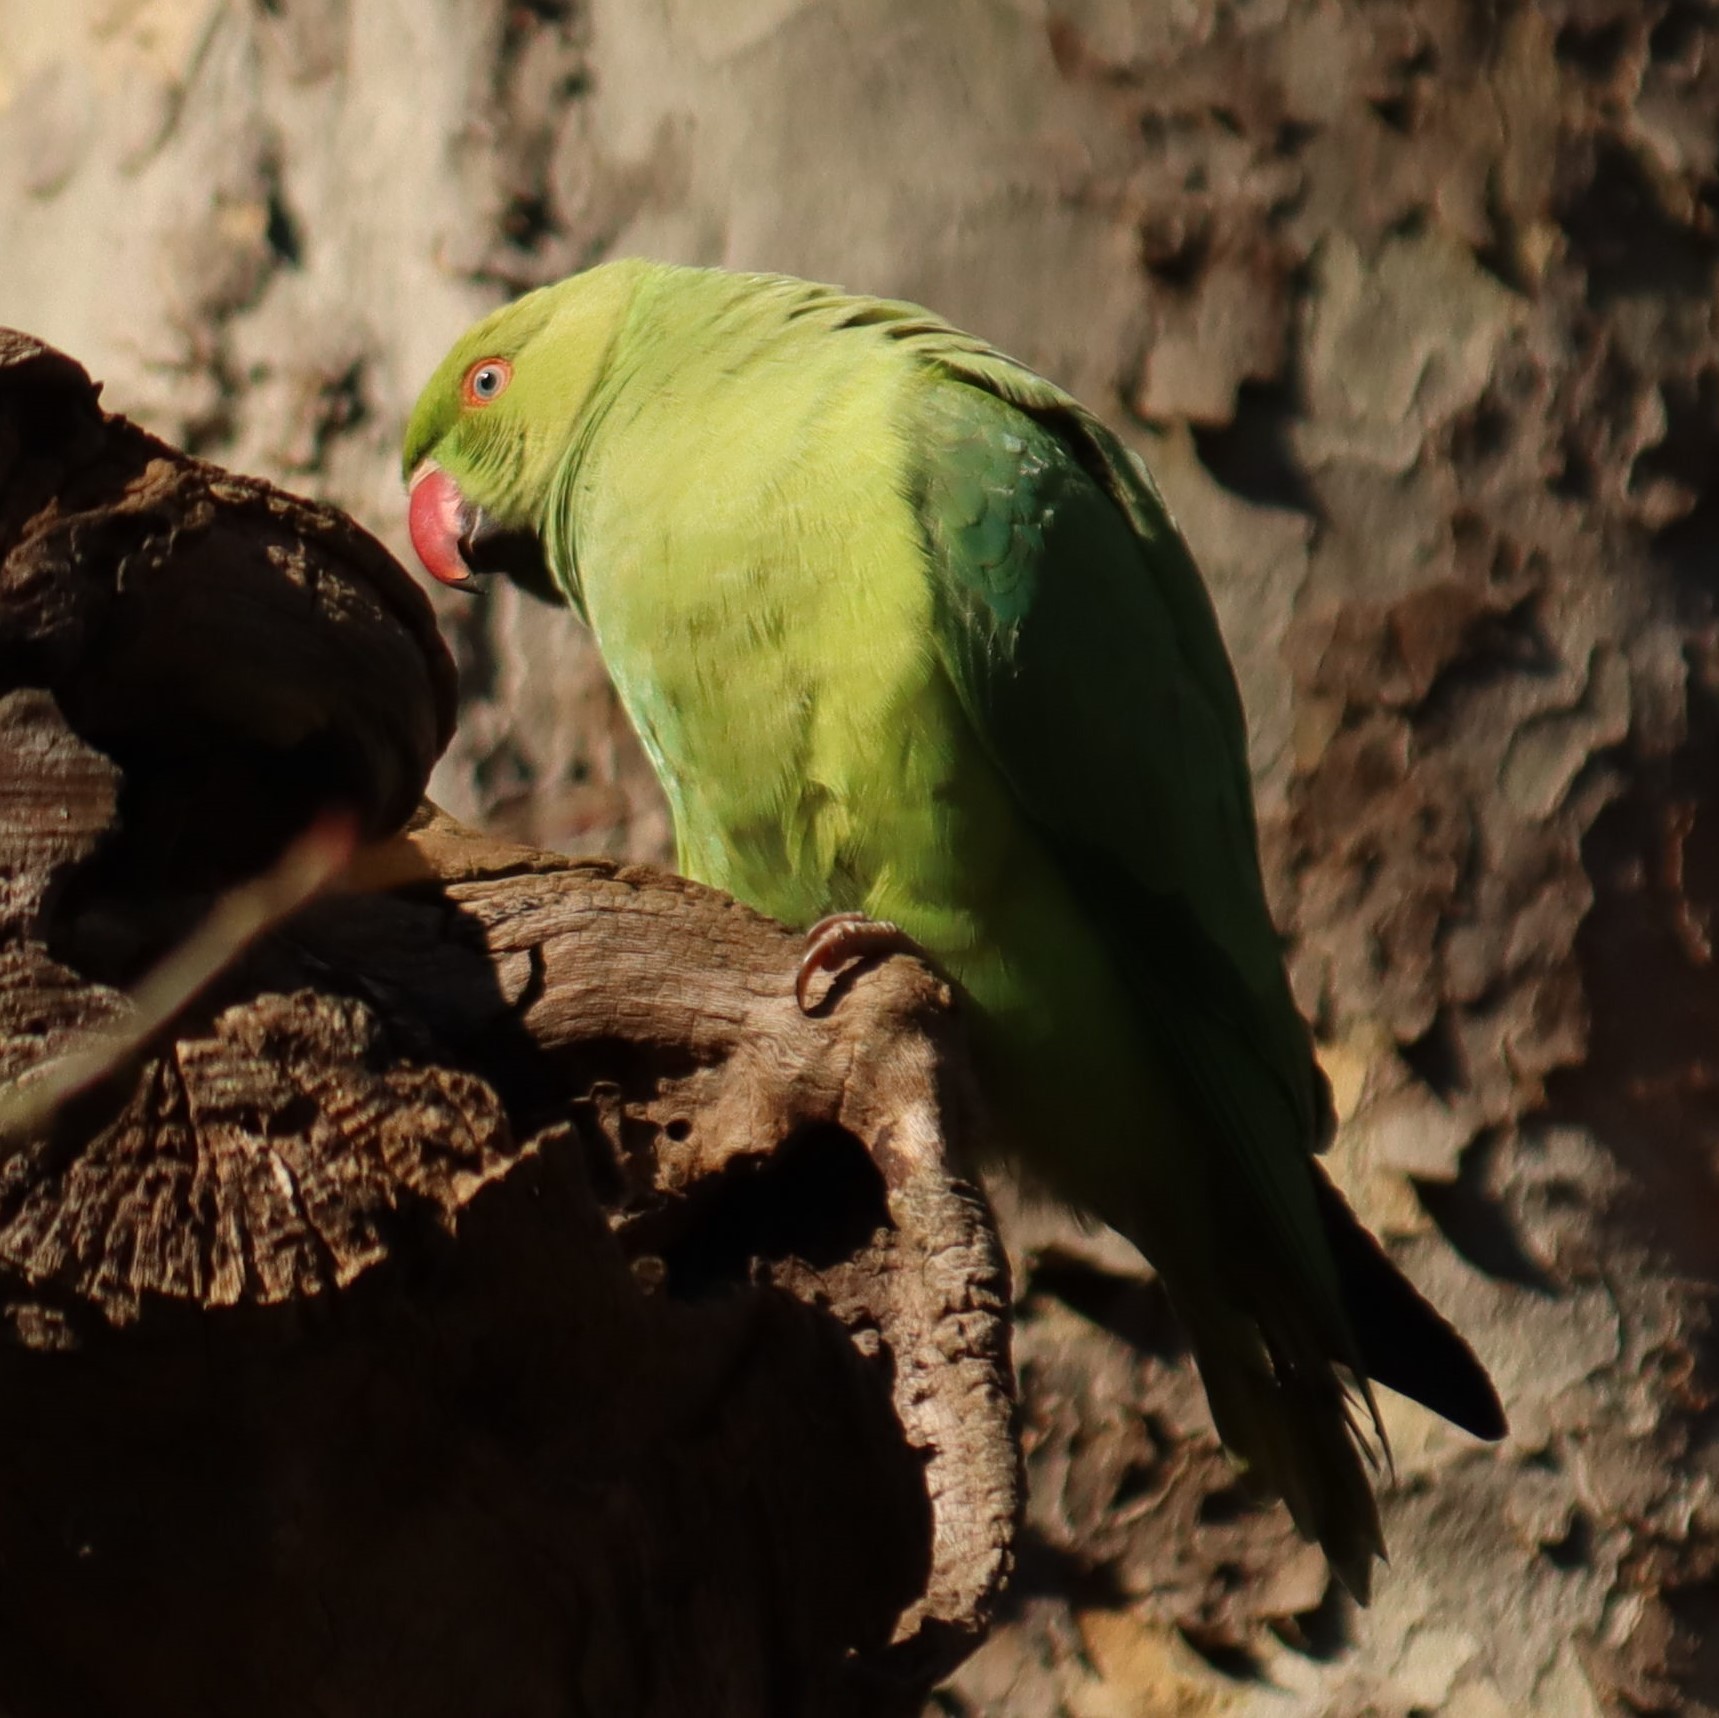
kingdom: Animalia
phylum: Chordata
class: Aves
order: Psittaciformes
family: Psittacidae
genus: Psittacula
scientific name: Psittacula krameri
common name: Rose-ringed parakeet
